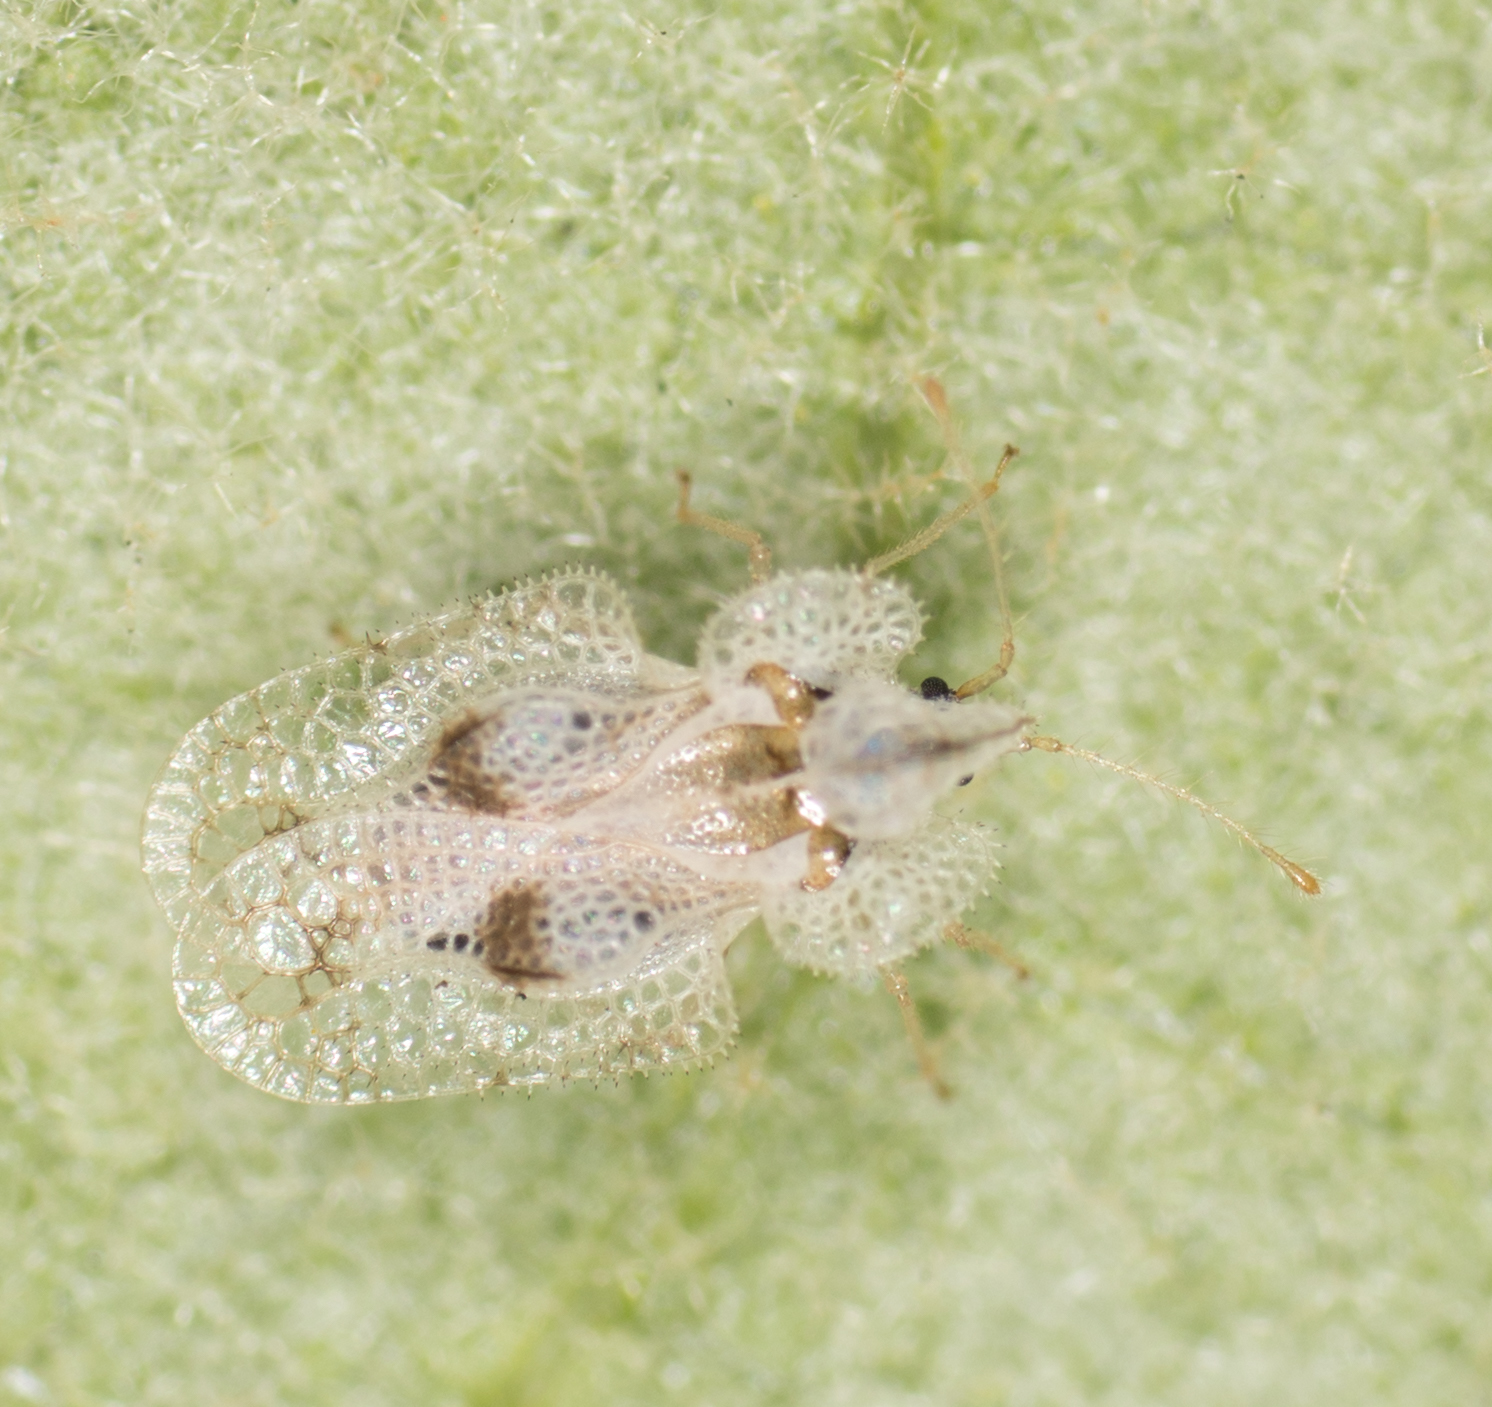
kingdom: Animalia
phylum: Arthropoda
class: Insecta
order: Hemiptera
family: Tingidae
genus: Corythucha
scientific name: Corythucha confraterna
